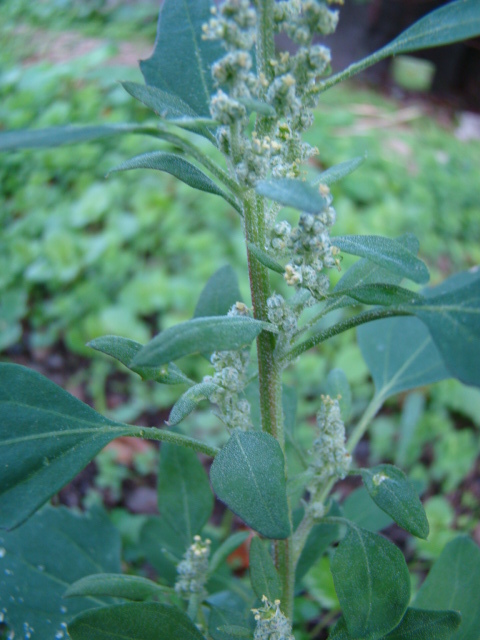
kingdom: Plantae
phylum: Tracheophyta
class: Magnoliopsida
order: Caryophyllales
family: Amaranthaceae
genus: Chenopodium
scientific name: Chenopodium album
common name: Fat-hen
